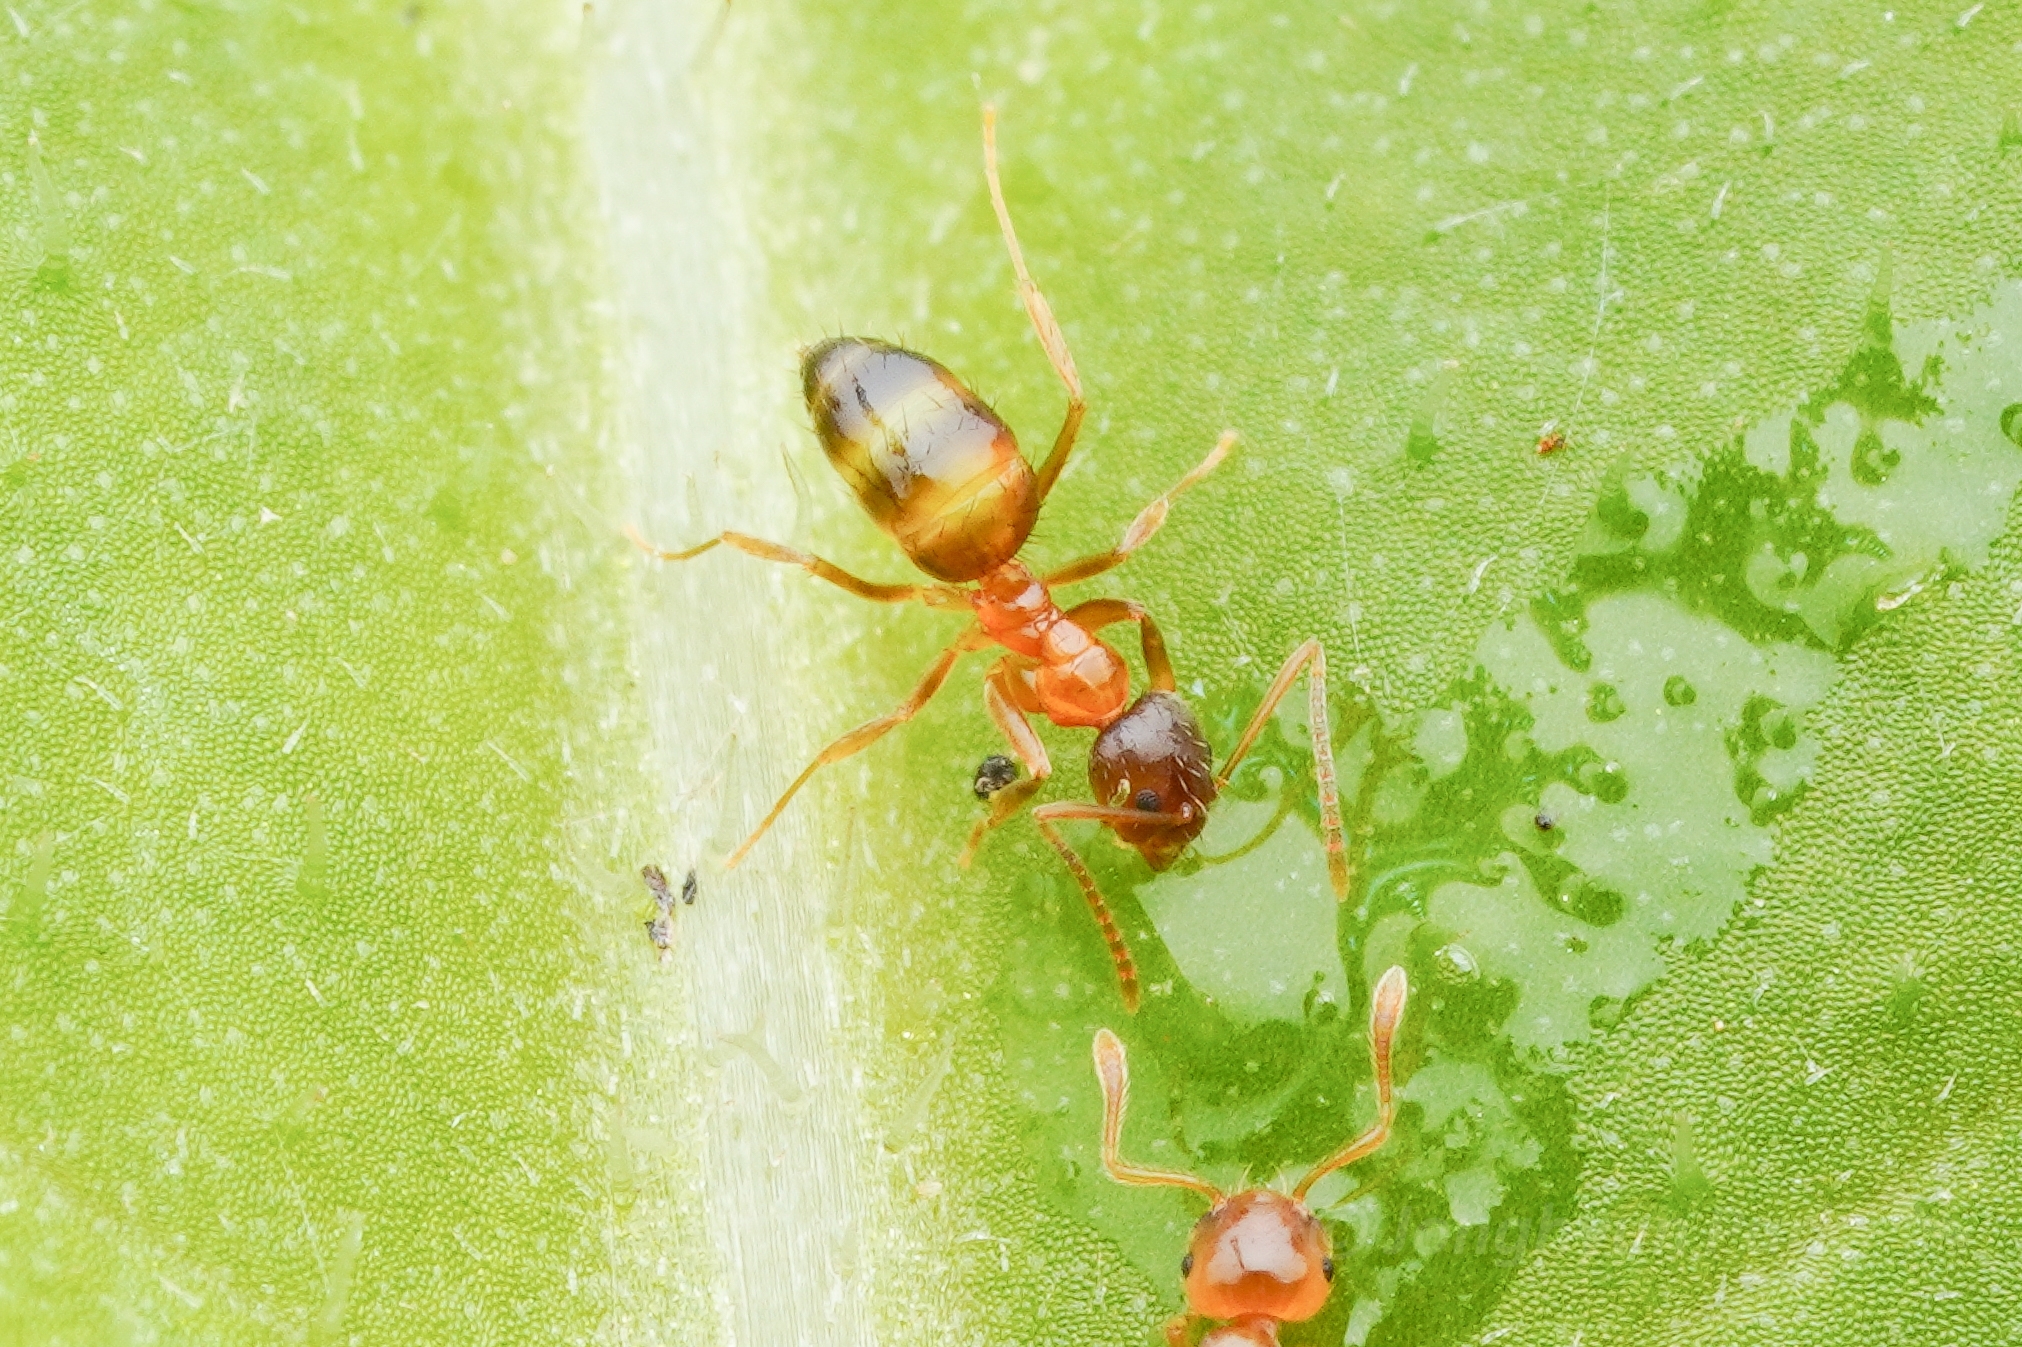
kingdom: Animalia
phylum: Arthropoda
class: Insecta
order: Hymenoptera
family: Formicidae
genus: Paratrechina
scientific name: Paratrechina flavipes
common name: Eastern asian formicine ant
